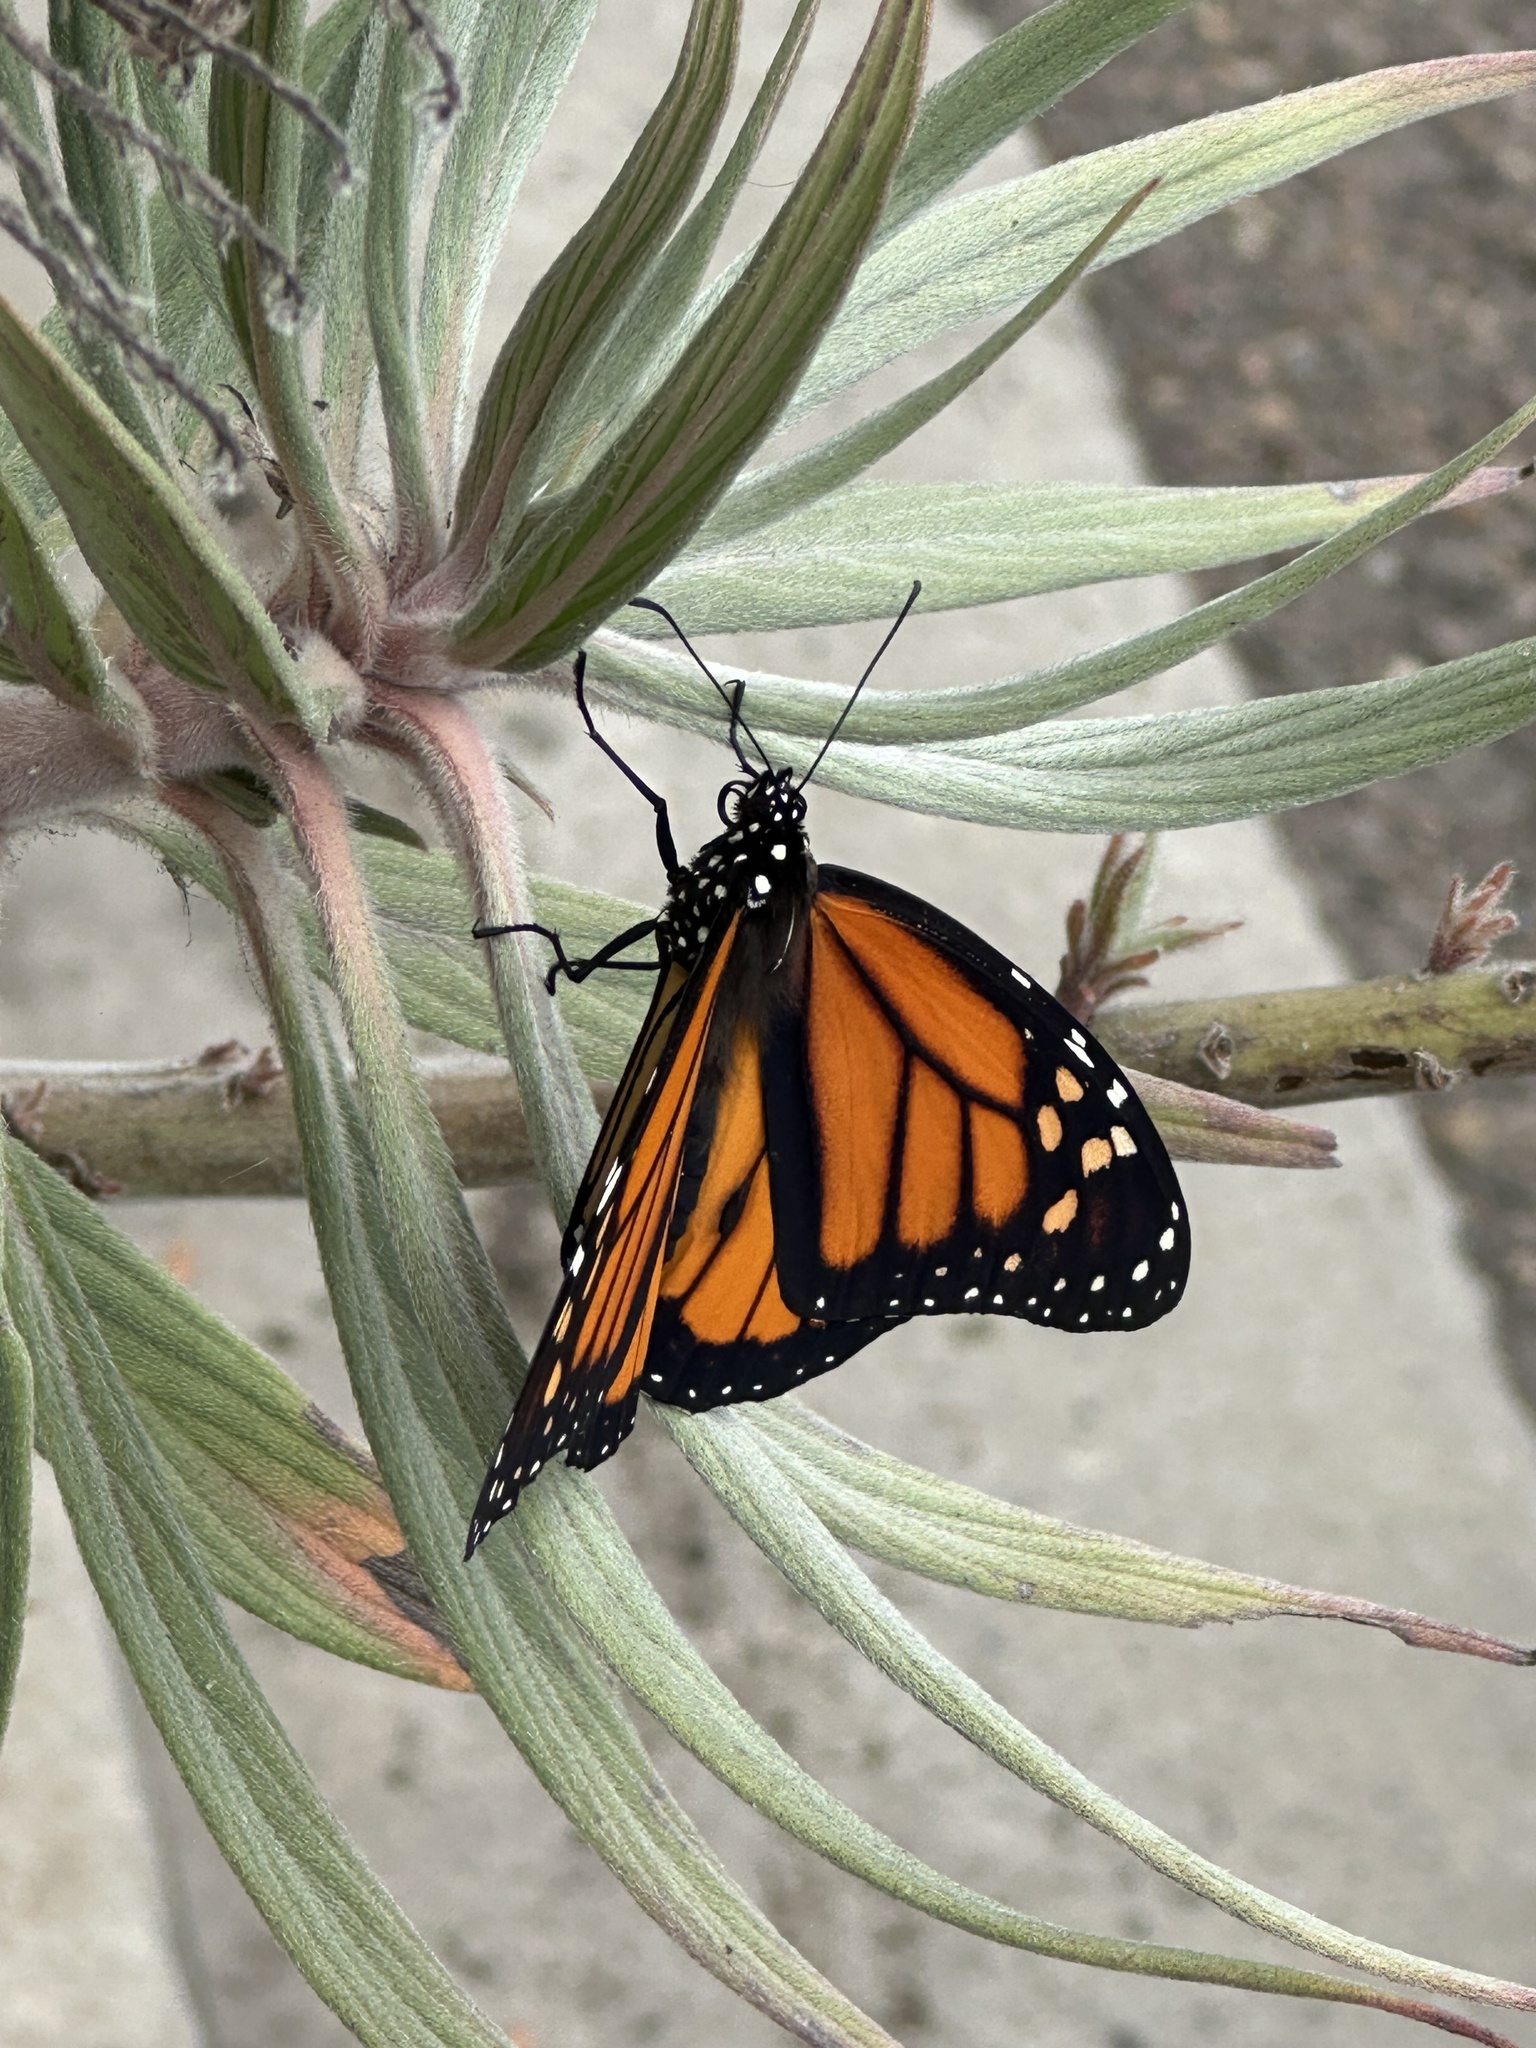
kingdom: Animalia
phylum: Arthropoda
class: Insecta
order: Lepidoptera
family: Nymphalidae
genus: Danaus
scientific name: Danaus plexippus
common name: Monarch
